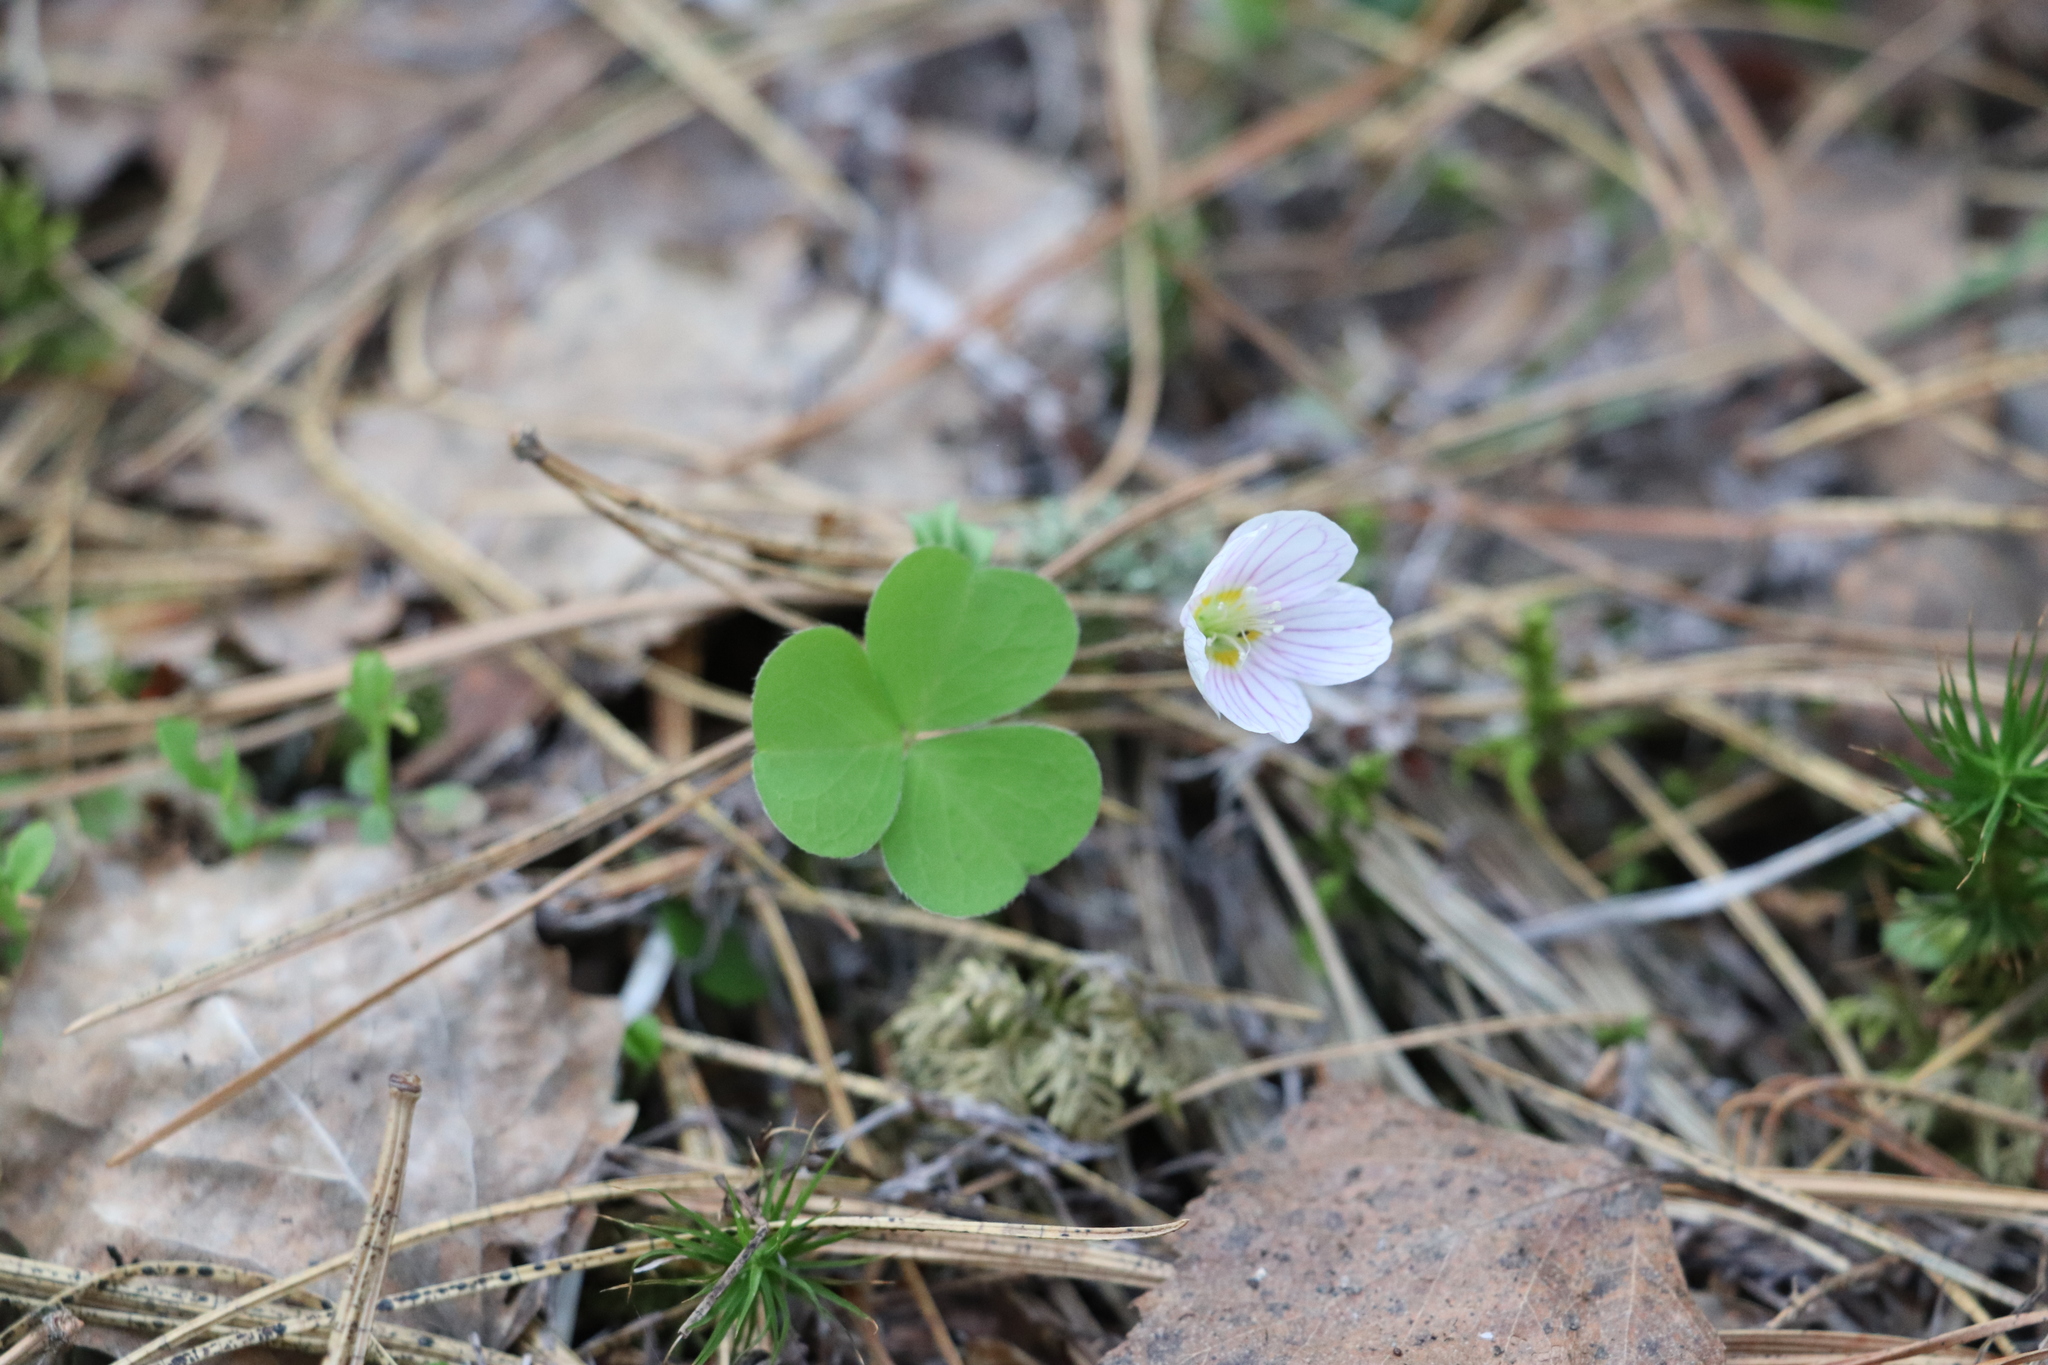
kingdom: Plantae
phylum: Tracheophyta
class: Magnoliopsida
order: Oxalidales
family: Oxalidaceae
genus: Oxalis
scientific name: Oxalis acetosella
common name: Wood-sorrel
